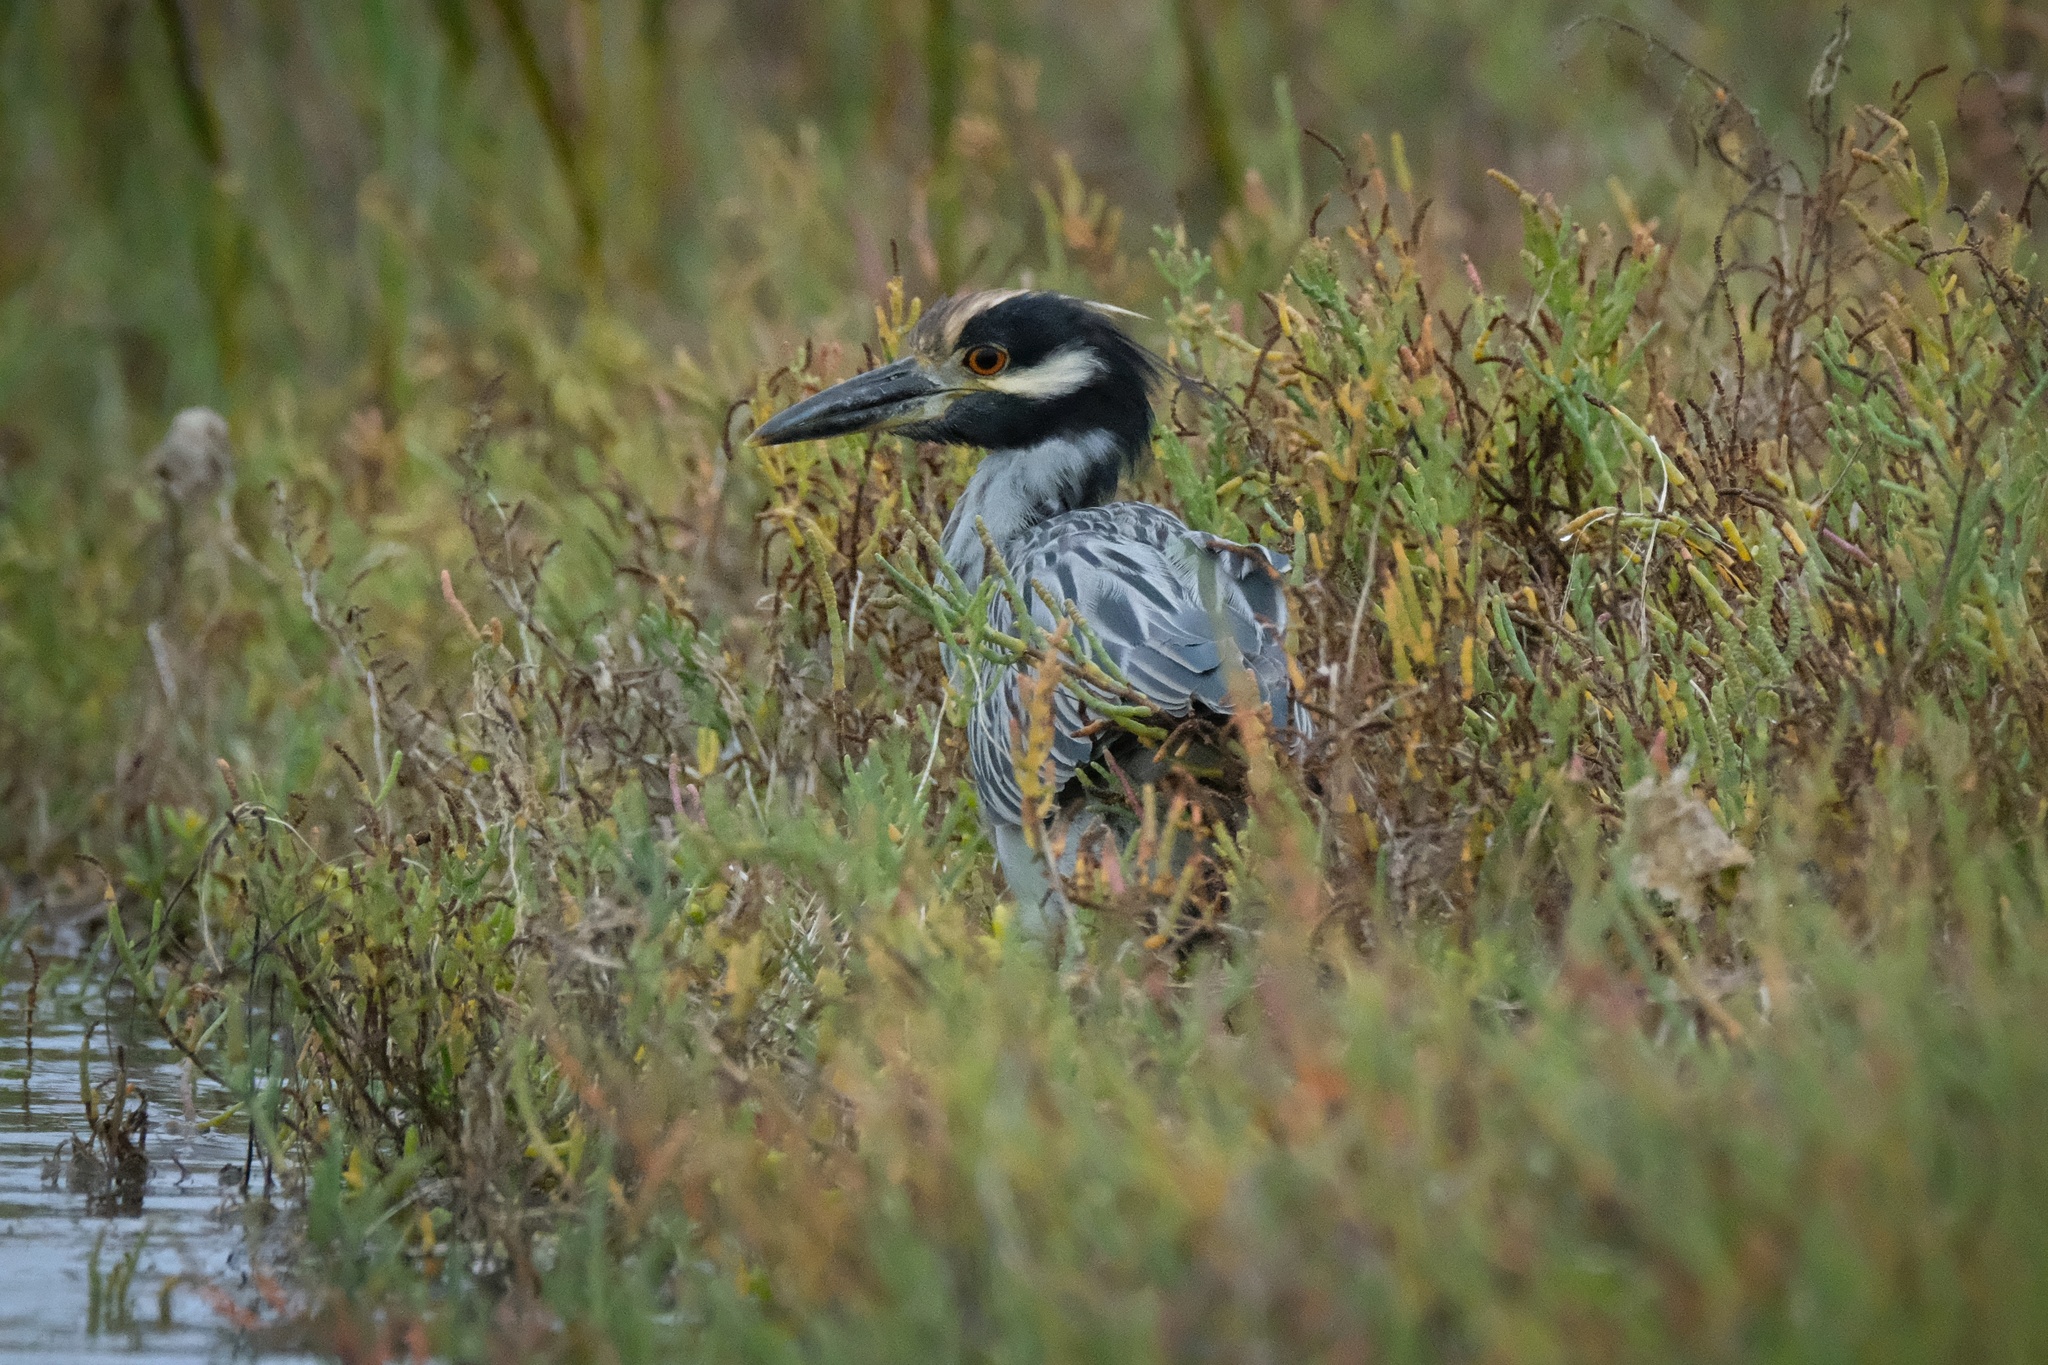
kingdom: Animalia
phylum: Chordata
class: Aves
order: Pelecaniformes
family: Ardeidae
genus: Nyctanassa
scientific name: Nyctanassa violacea
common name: Yellow-crowned night heron
